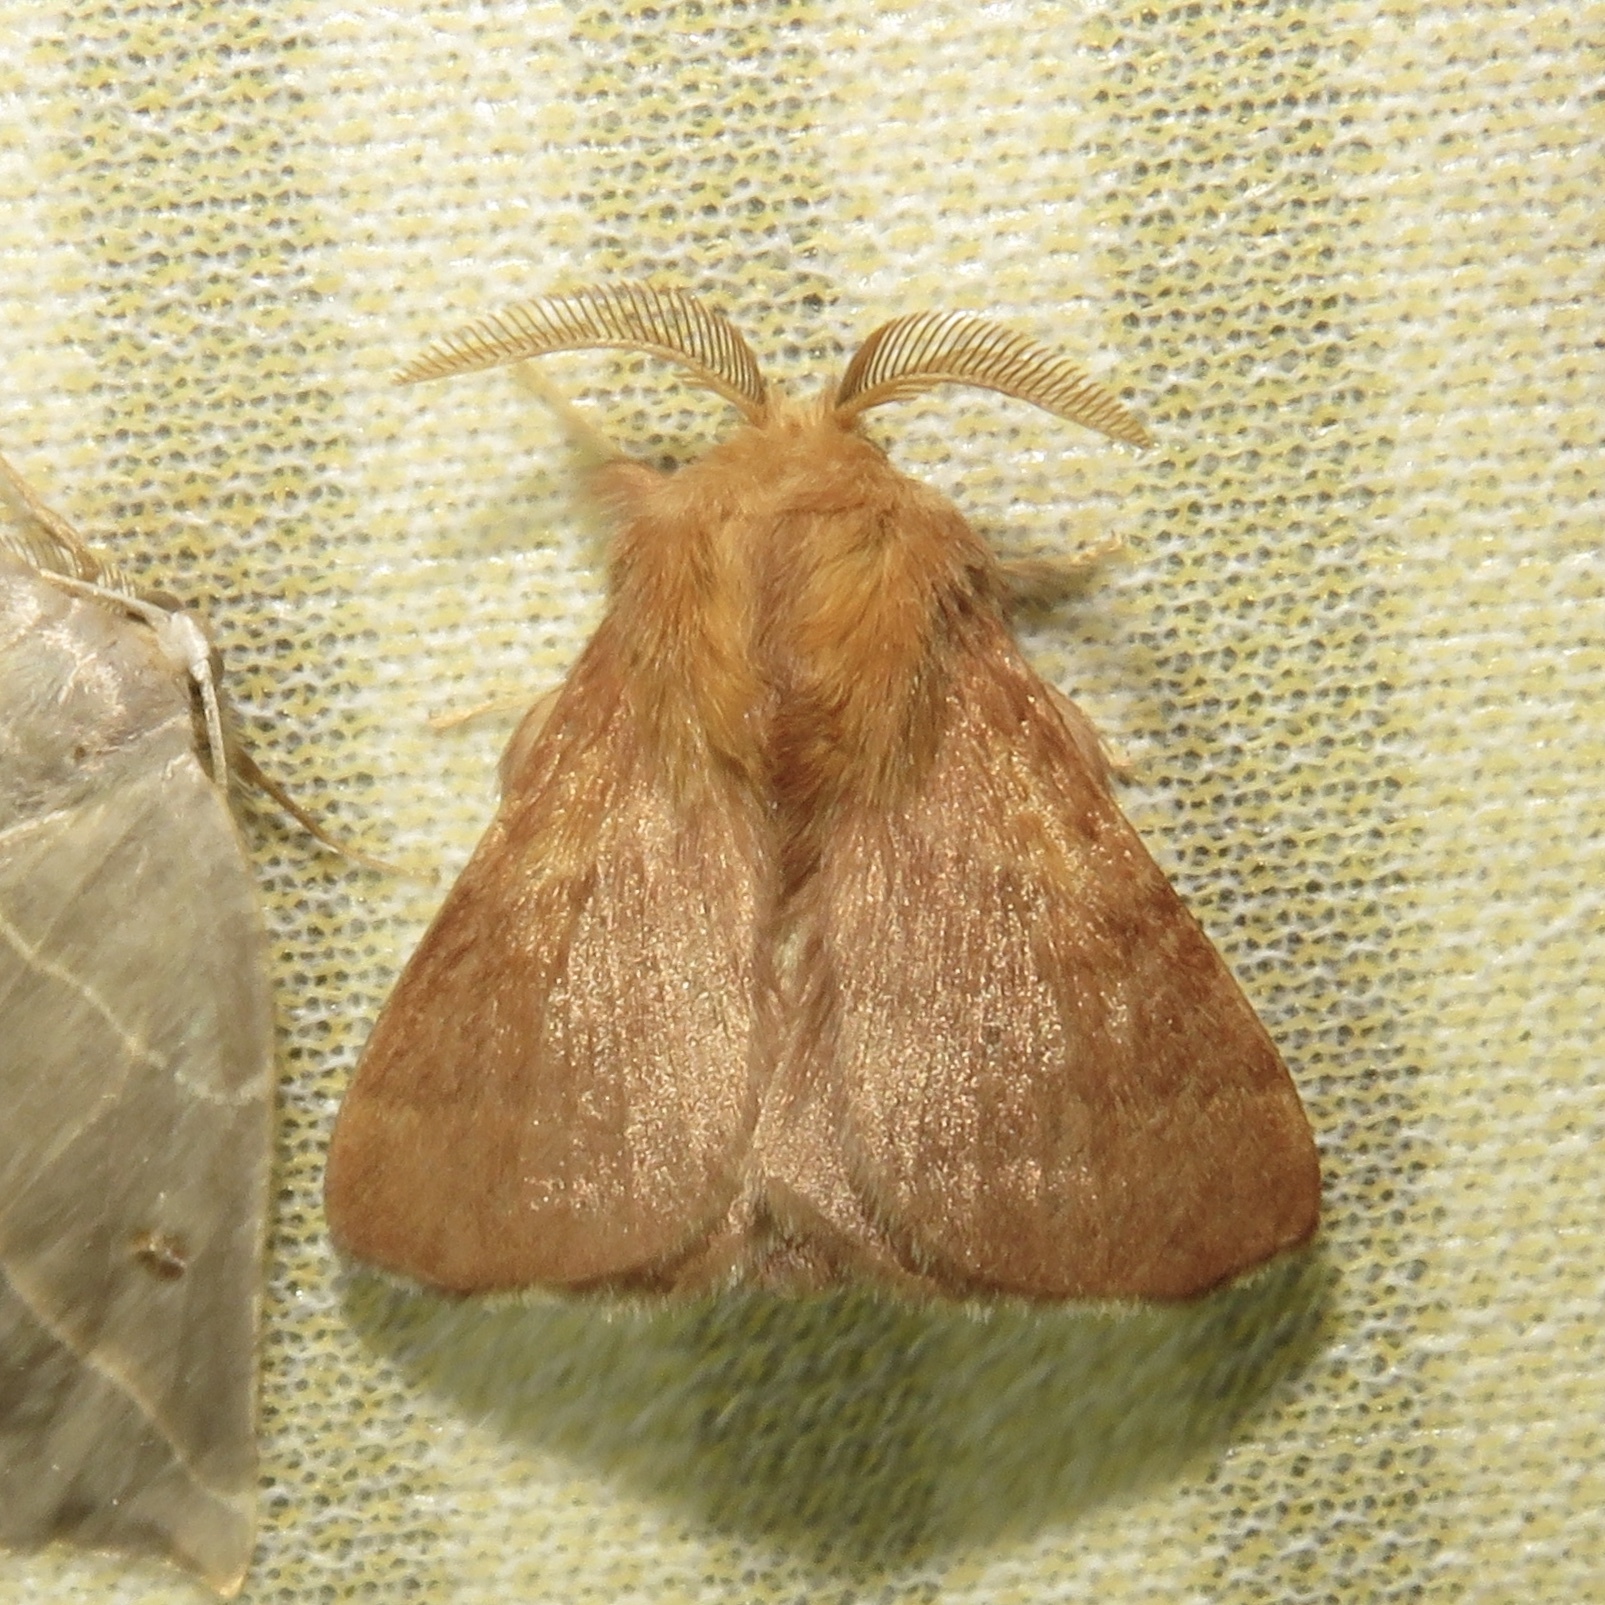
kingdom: Animalia
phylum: Arthropoda
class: Insecta
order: Lepidoptera
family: Lasiocampidae
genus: Malacosoma
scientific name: Malacosoma disstria
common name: Forest tent caterpillar
